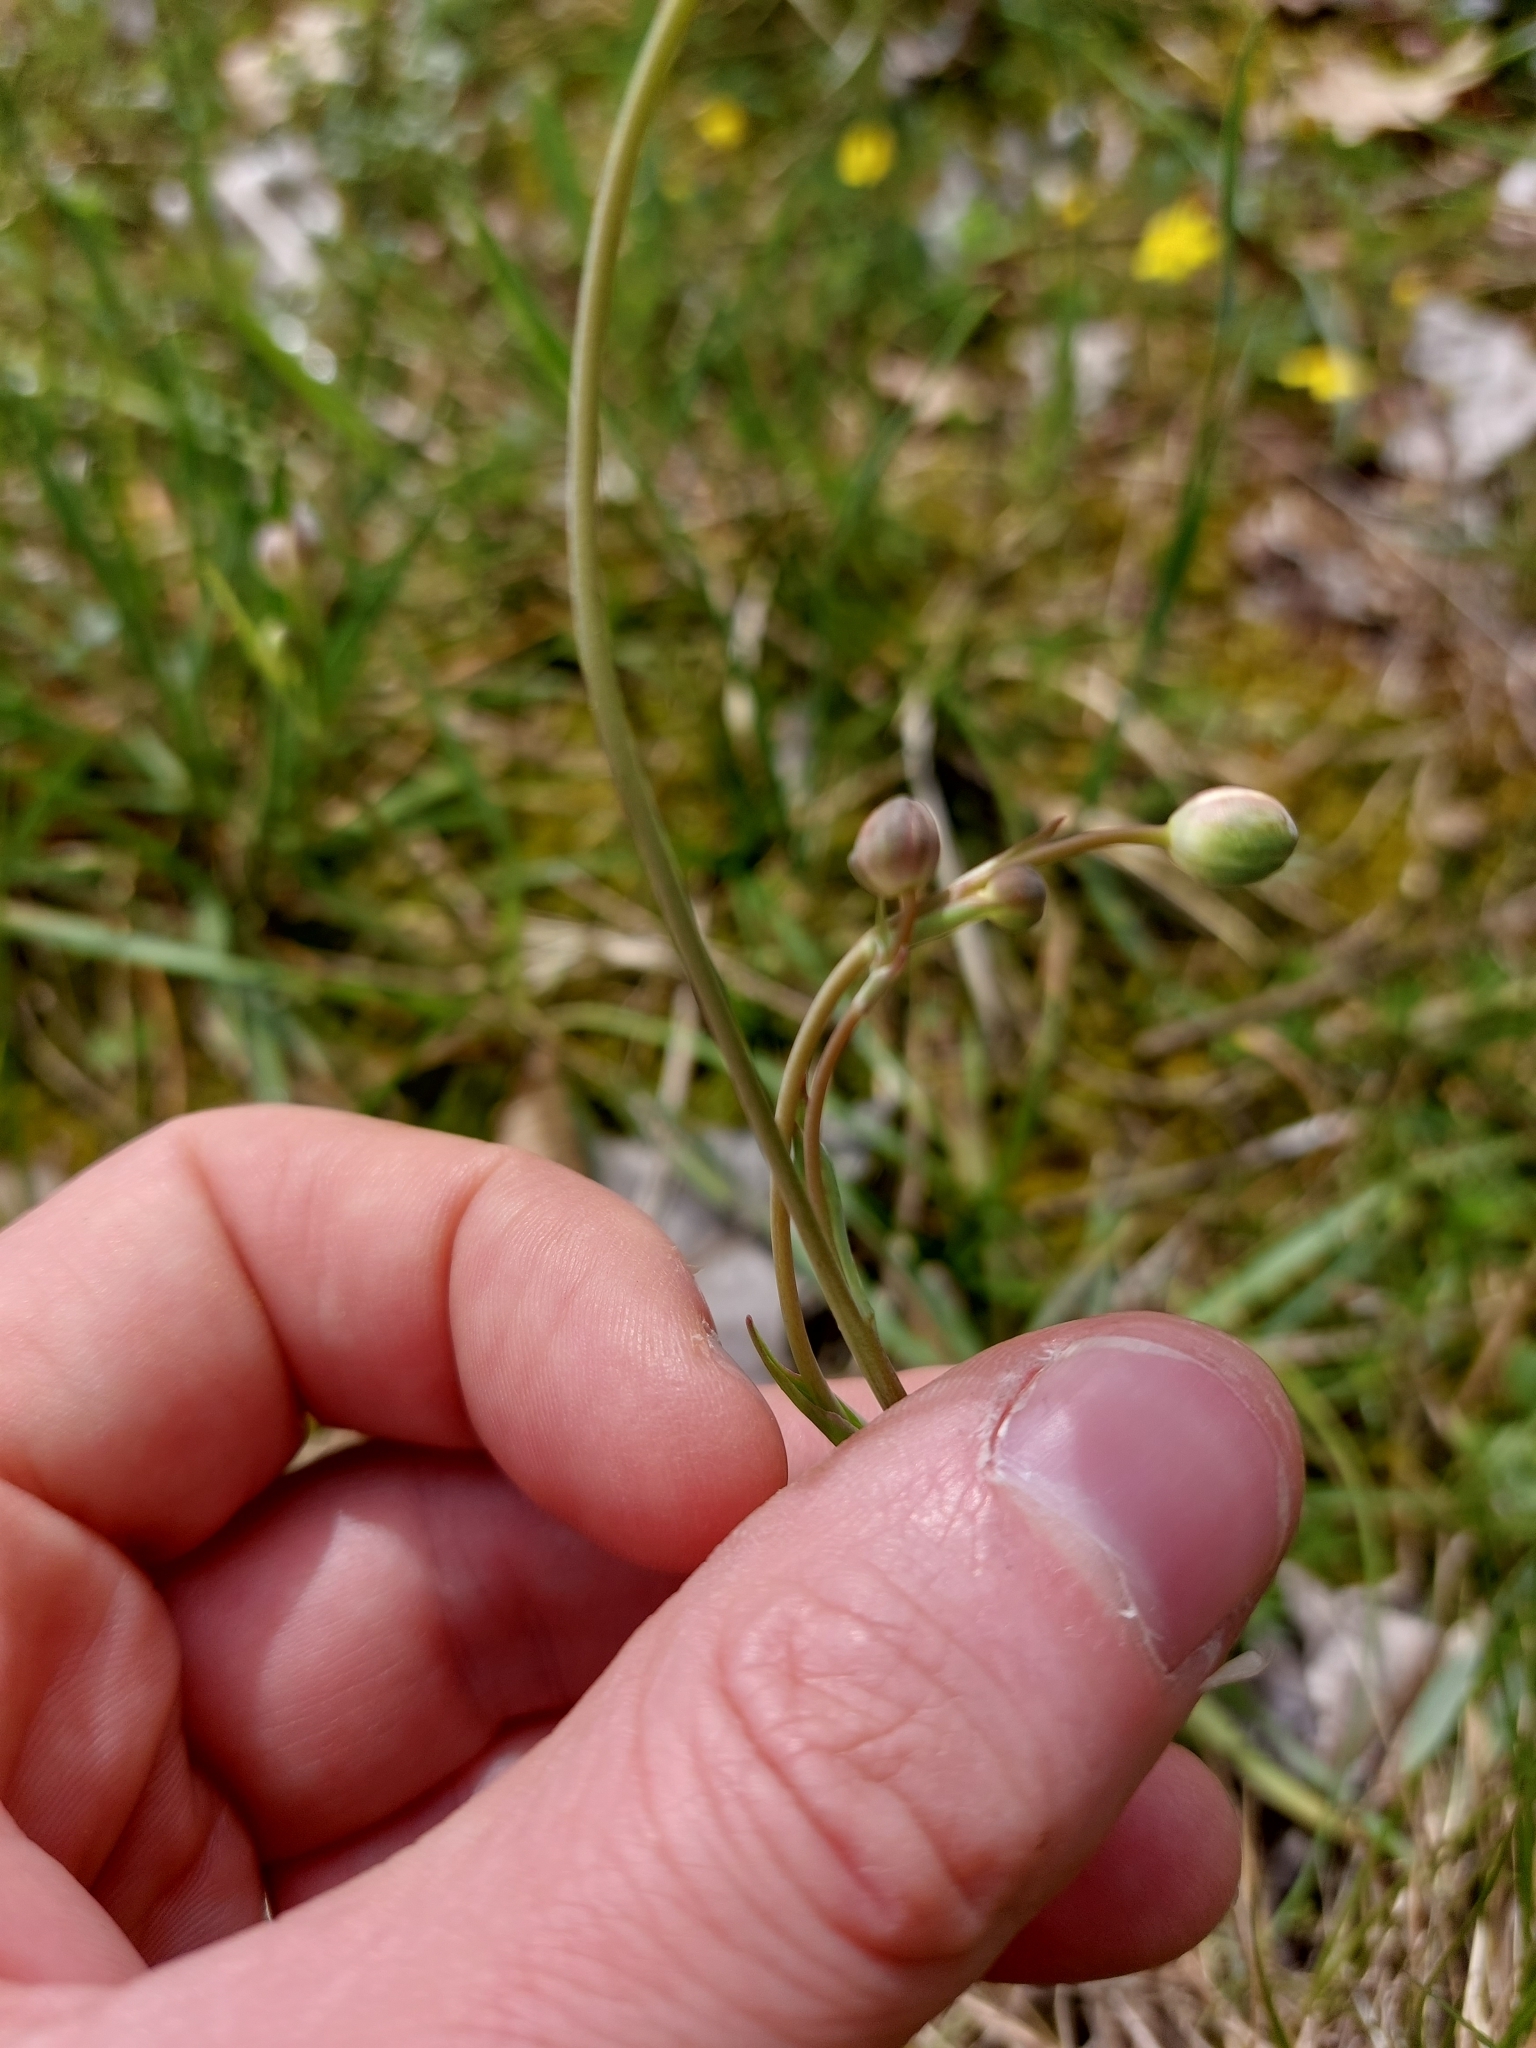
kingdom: Plantae
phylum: Tracheophyta
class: Magnoliopsida
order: Ranunculales
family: Ranunculaceae
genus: Ranunculus
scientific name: Ranunculus gramineus
